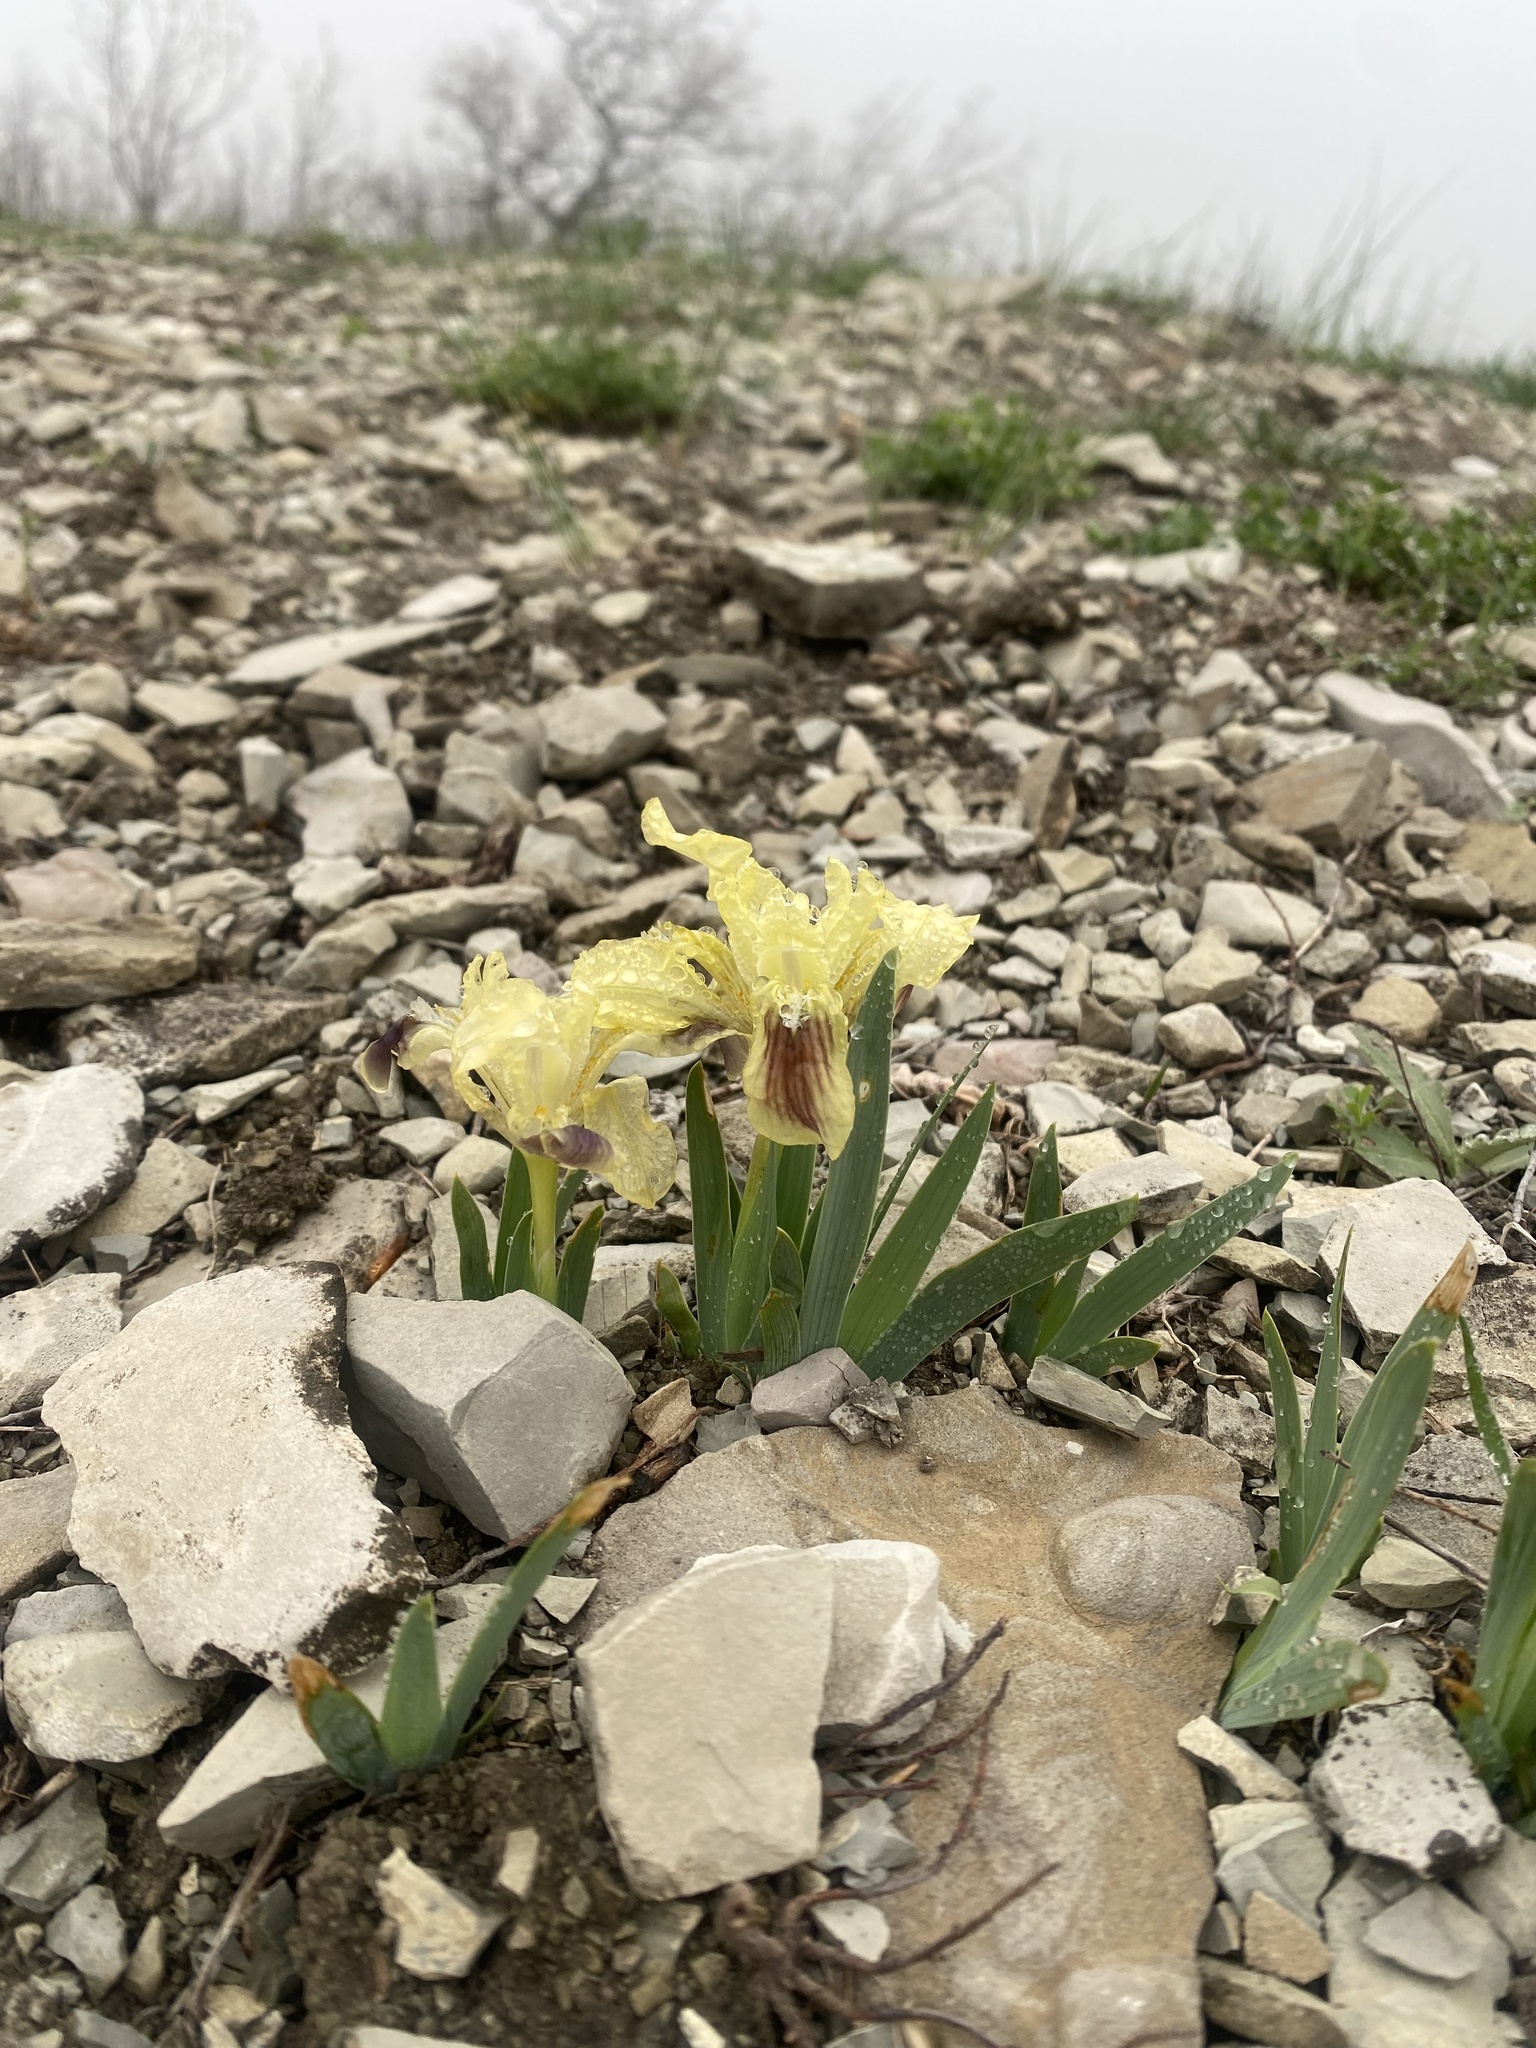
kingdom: Plantae
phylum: Tracheophyta
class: Liliopsida
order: Asparagales
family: Iridaceae
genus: Iris
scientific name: Iris pumila
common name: Dwarf iris
